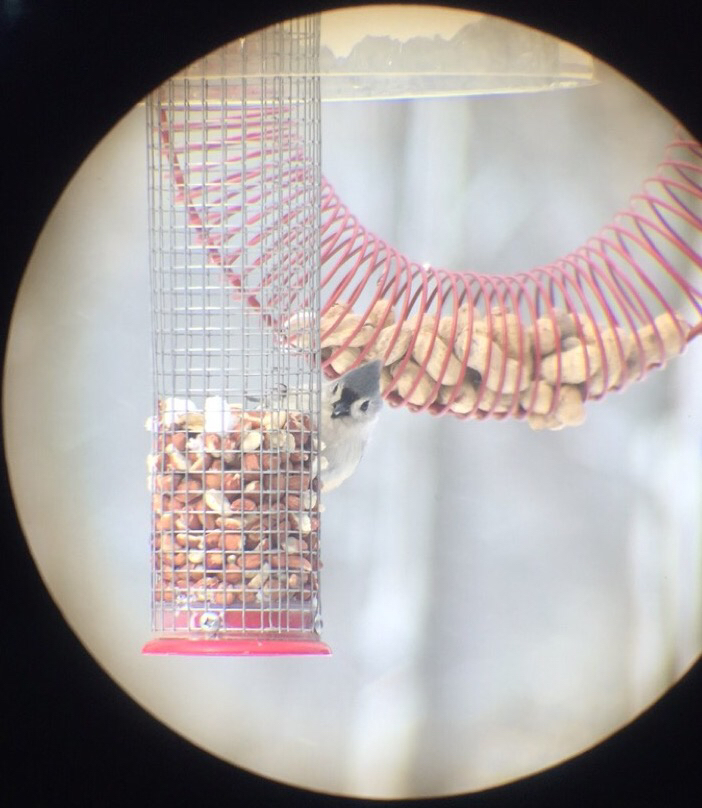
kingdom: Animalia
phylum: Chordata
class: Aves
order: Passeriformes
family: Paridae
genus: Baeolophus
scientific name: Baeolophus bicolor
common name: Tufted titmouse
